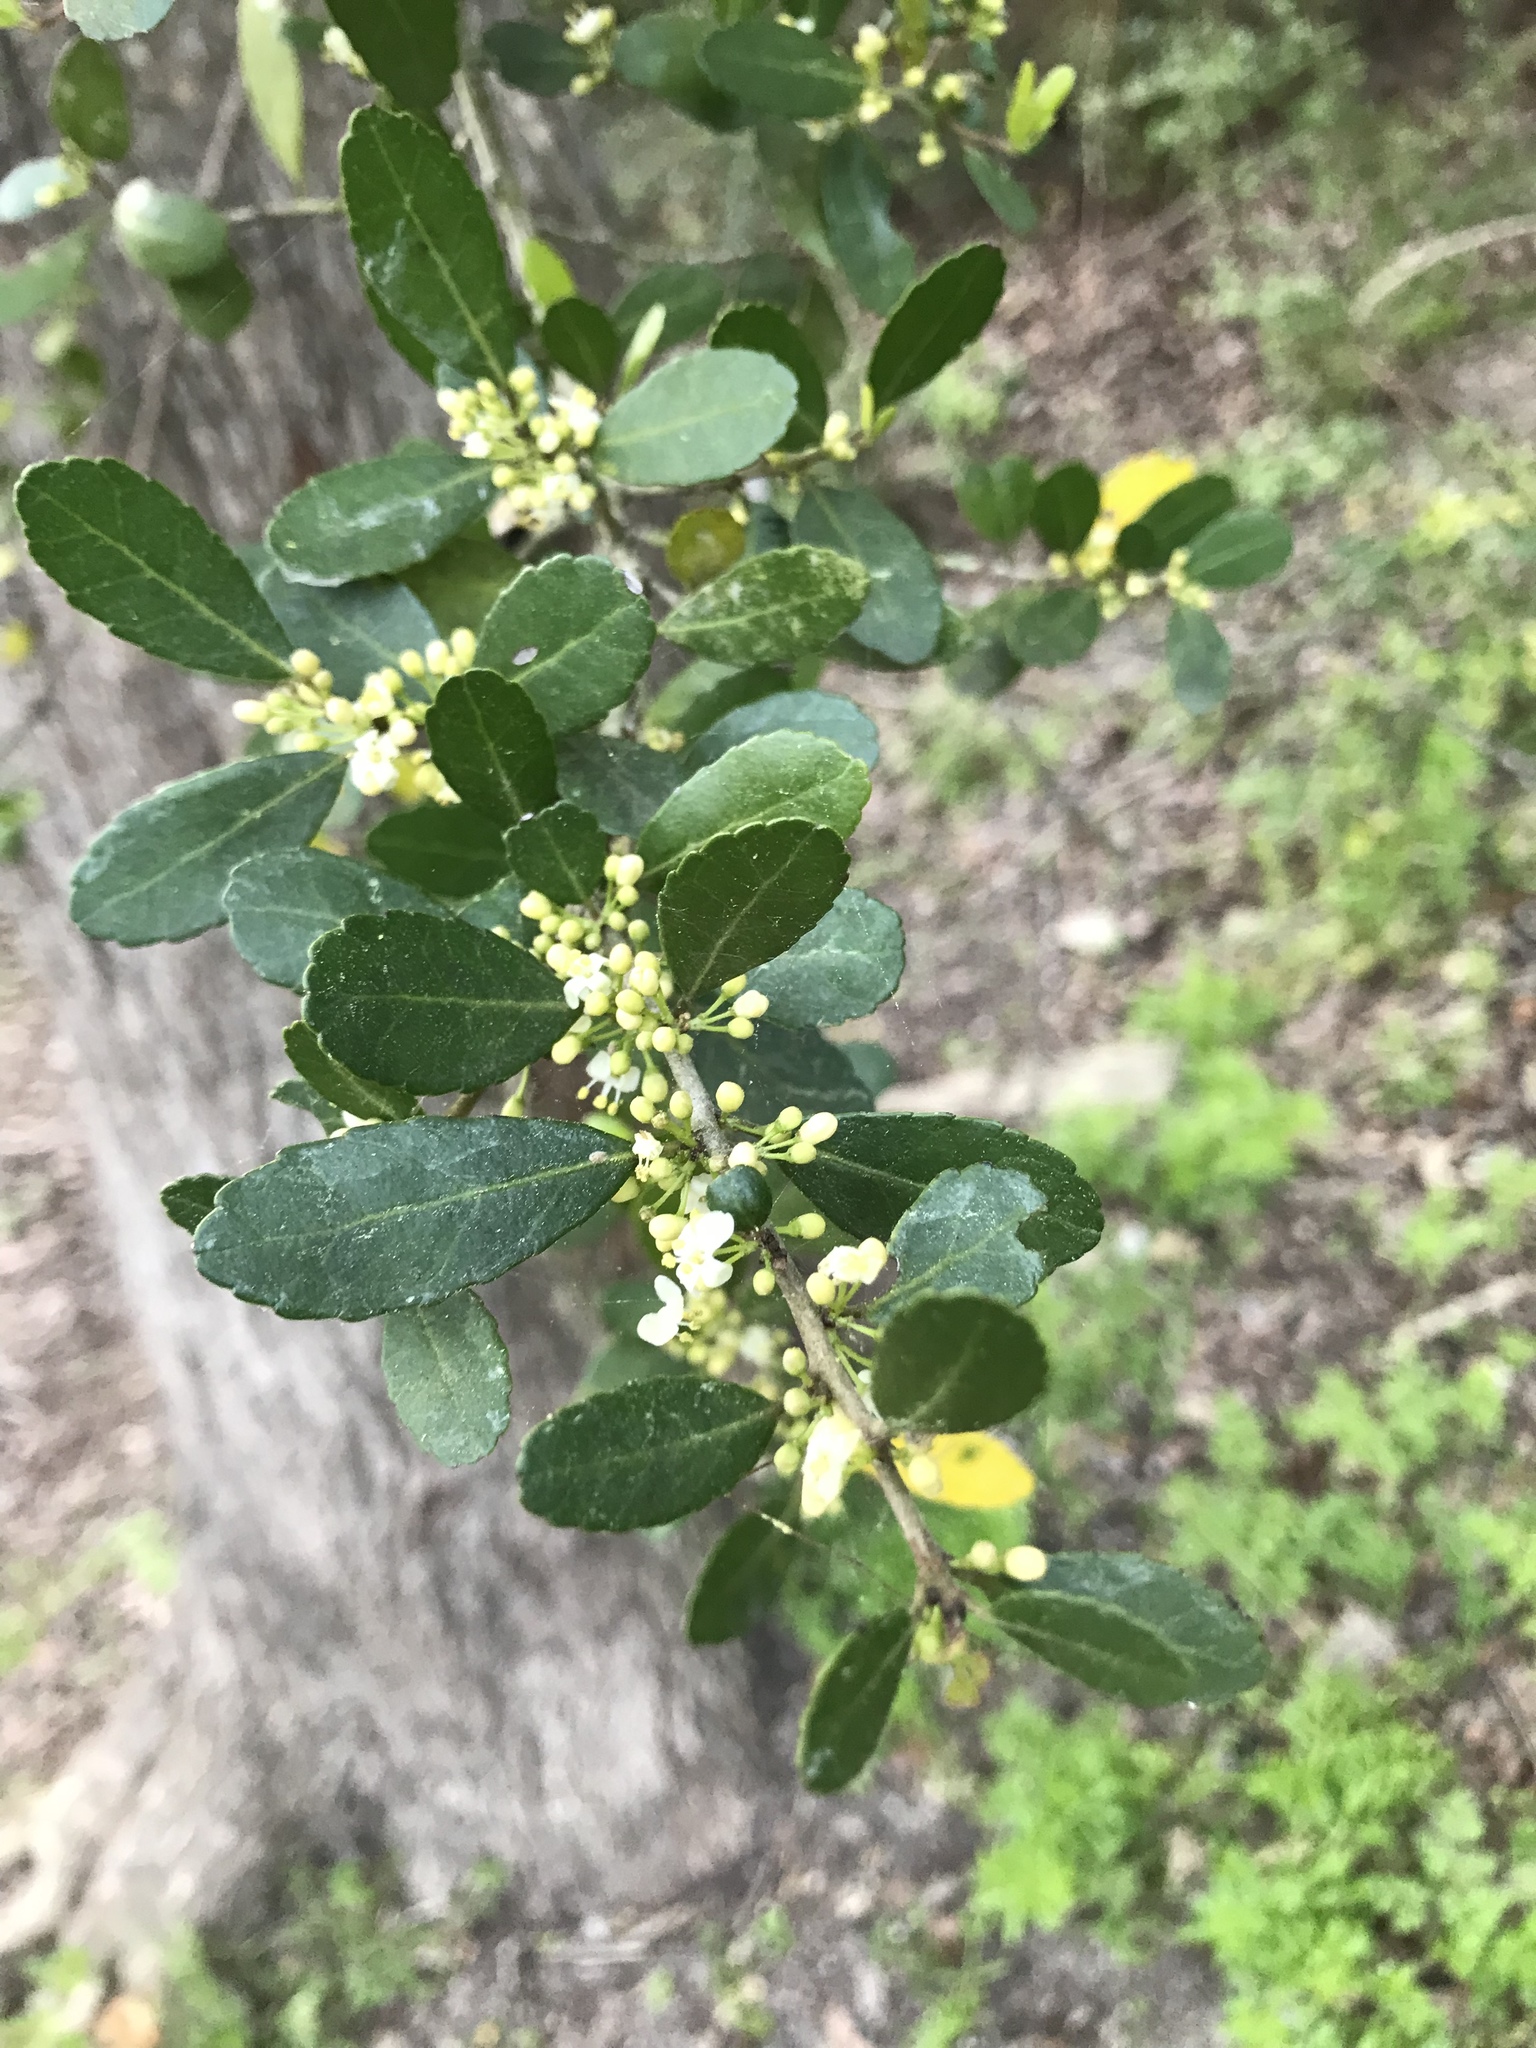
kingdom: Plantae
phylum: Tracheophyta
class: Magnoliopsida
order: Aquifoliales
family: Aquifoliaceae
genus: Ilex
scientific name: Ilex vomitoria
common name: Yaupon holly
